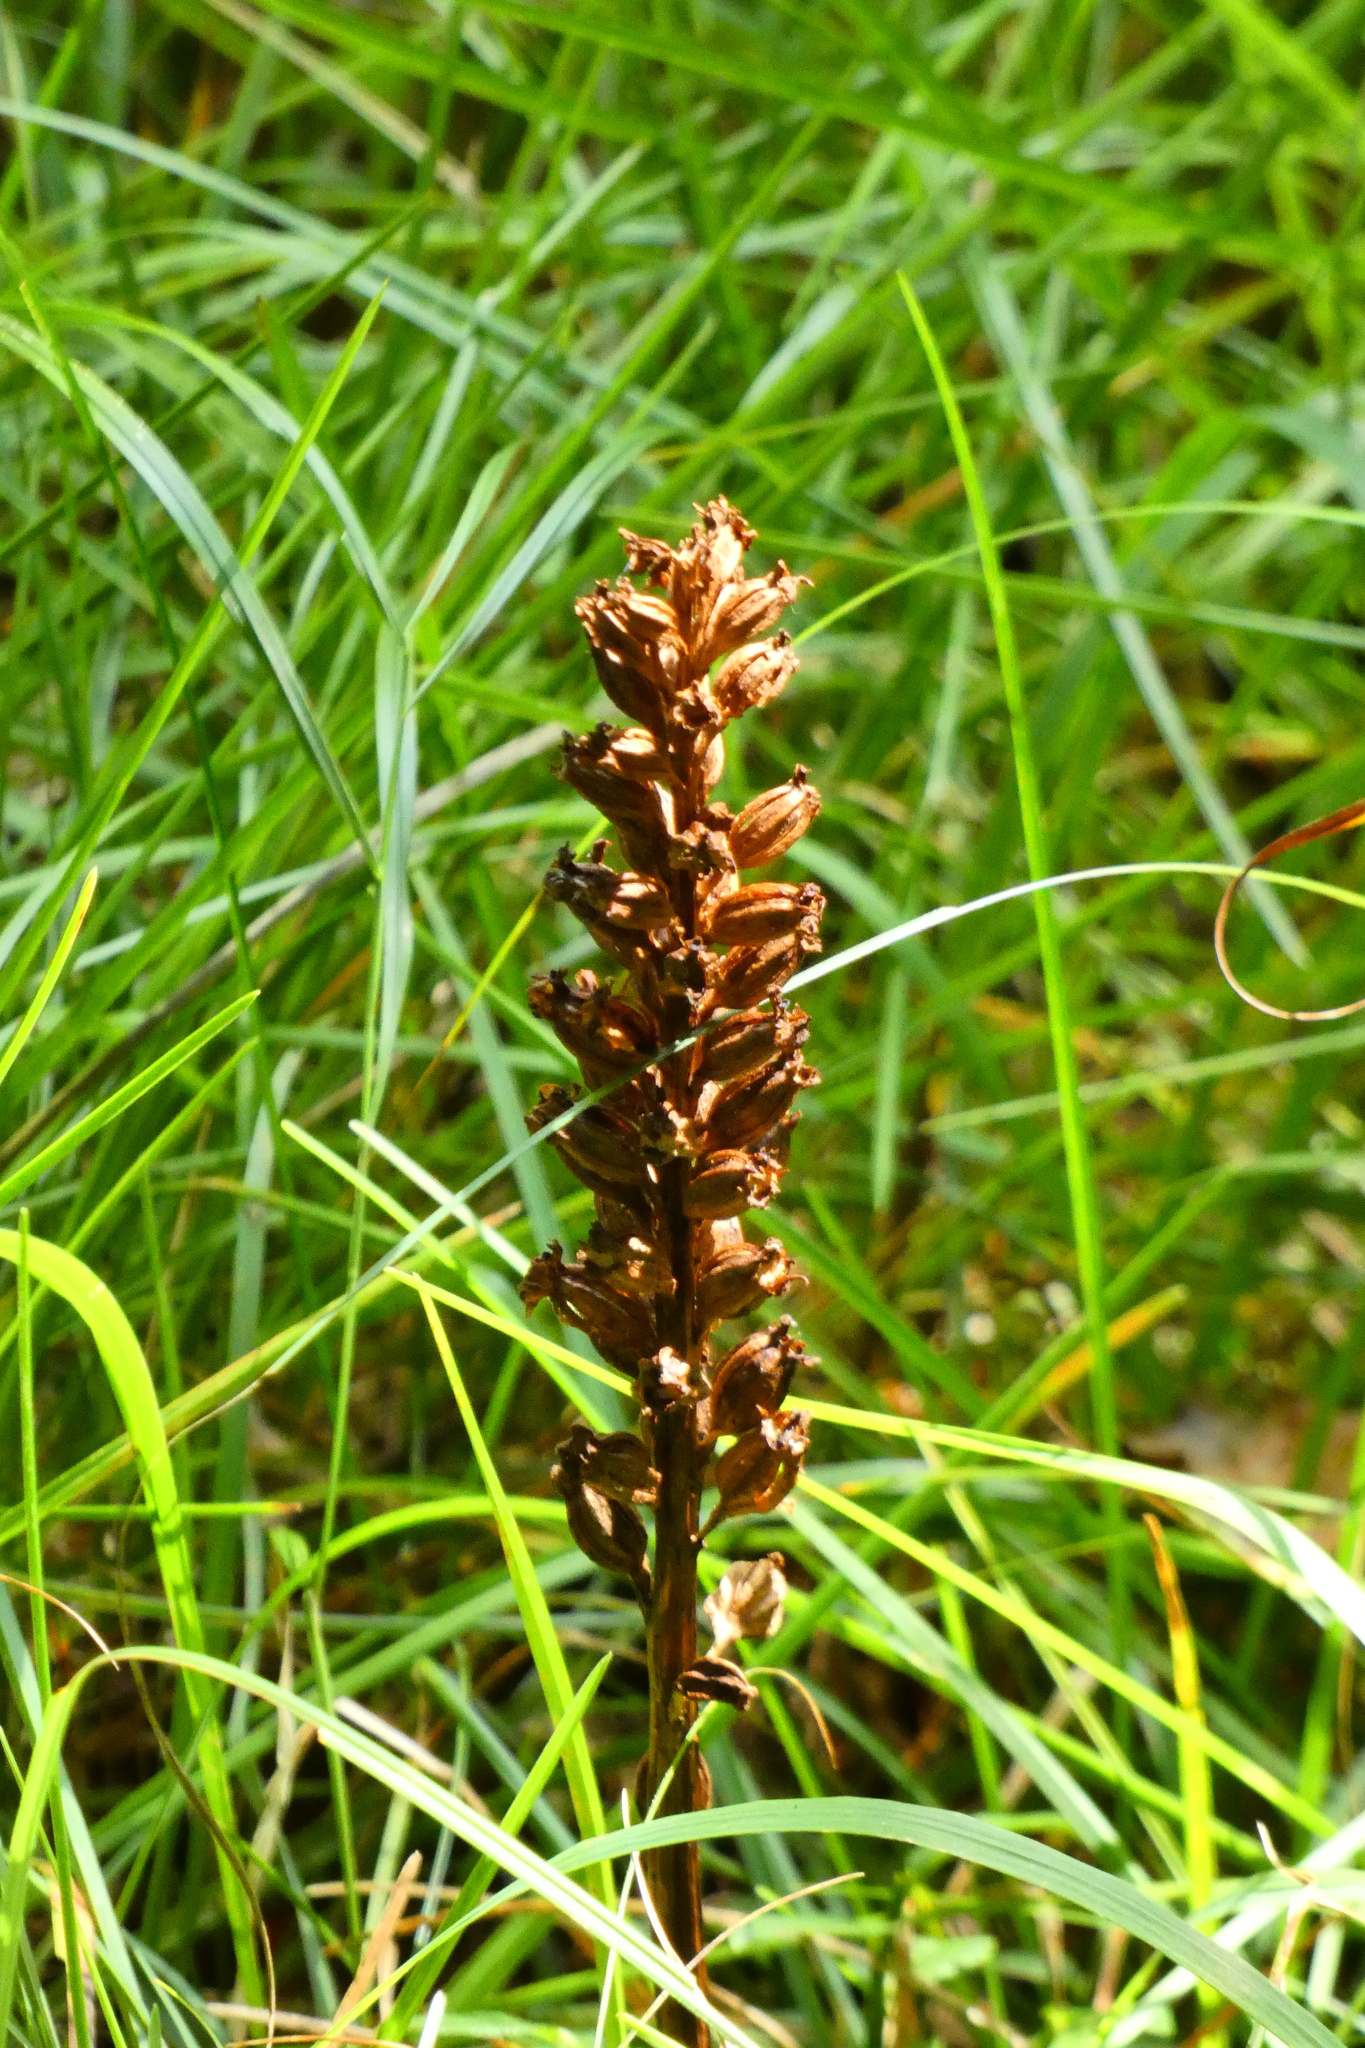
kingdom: Plantae
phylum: Tracheophyta
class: Liliopsida
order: Asparagales
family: Orchidaceae
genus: Neottia
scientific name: Neottia nidus-avis
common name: Bird's-nest orchid
